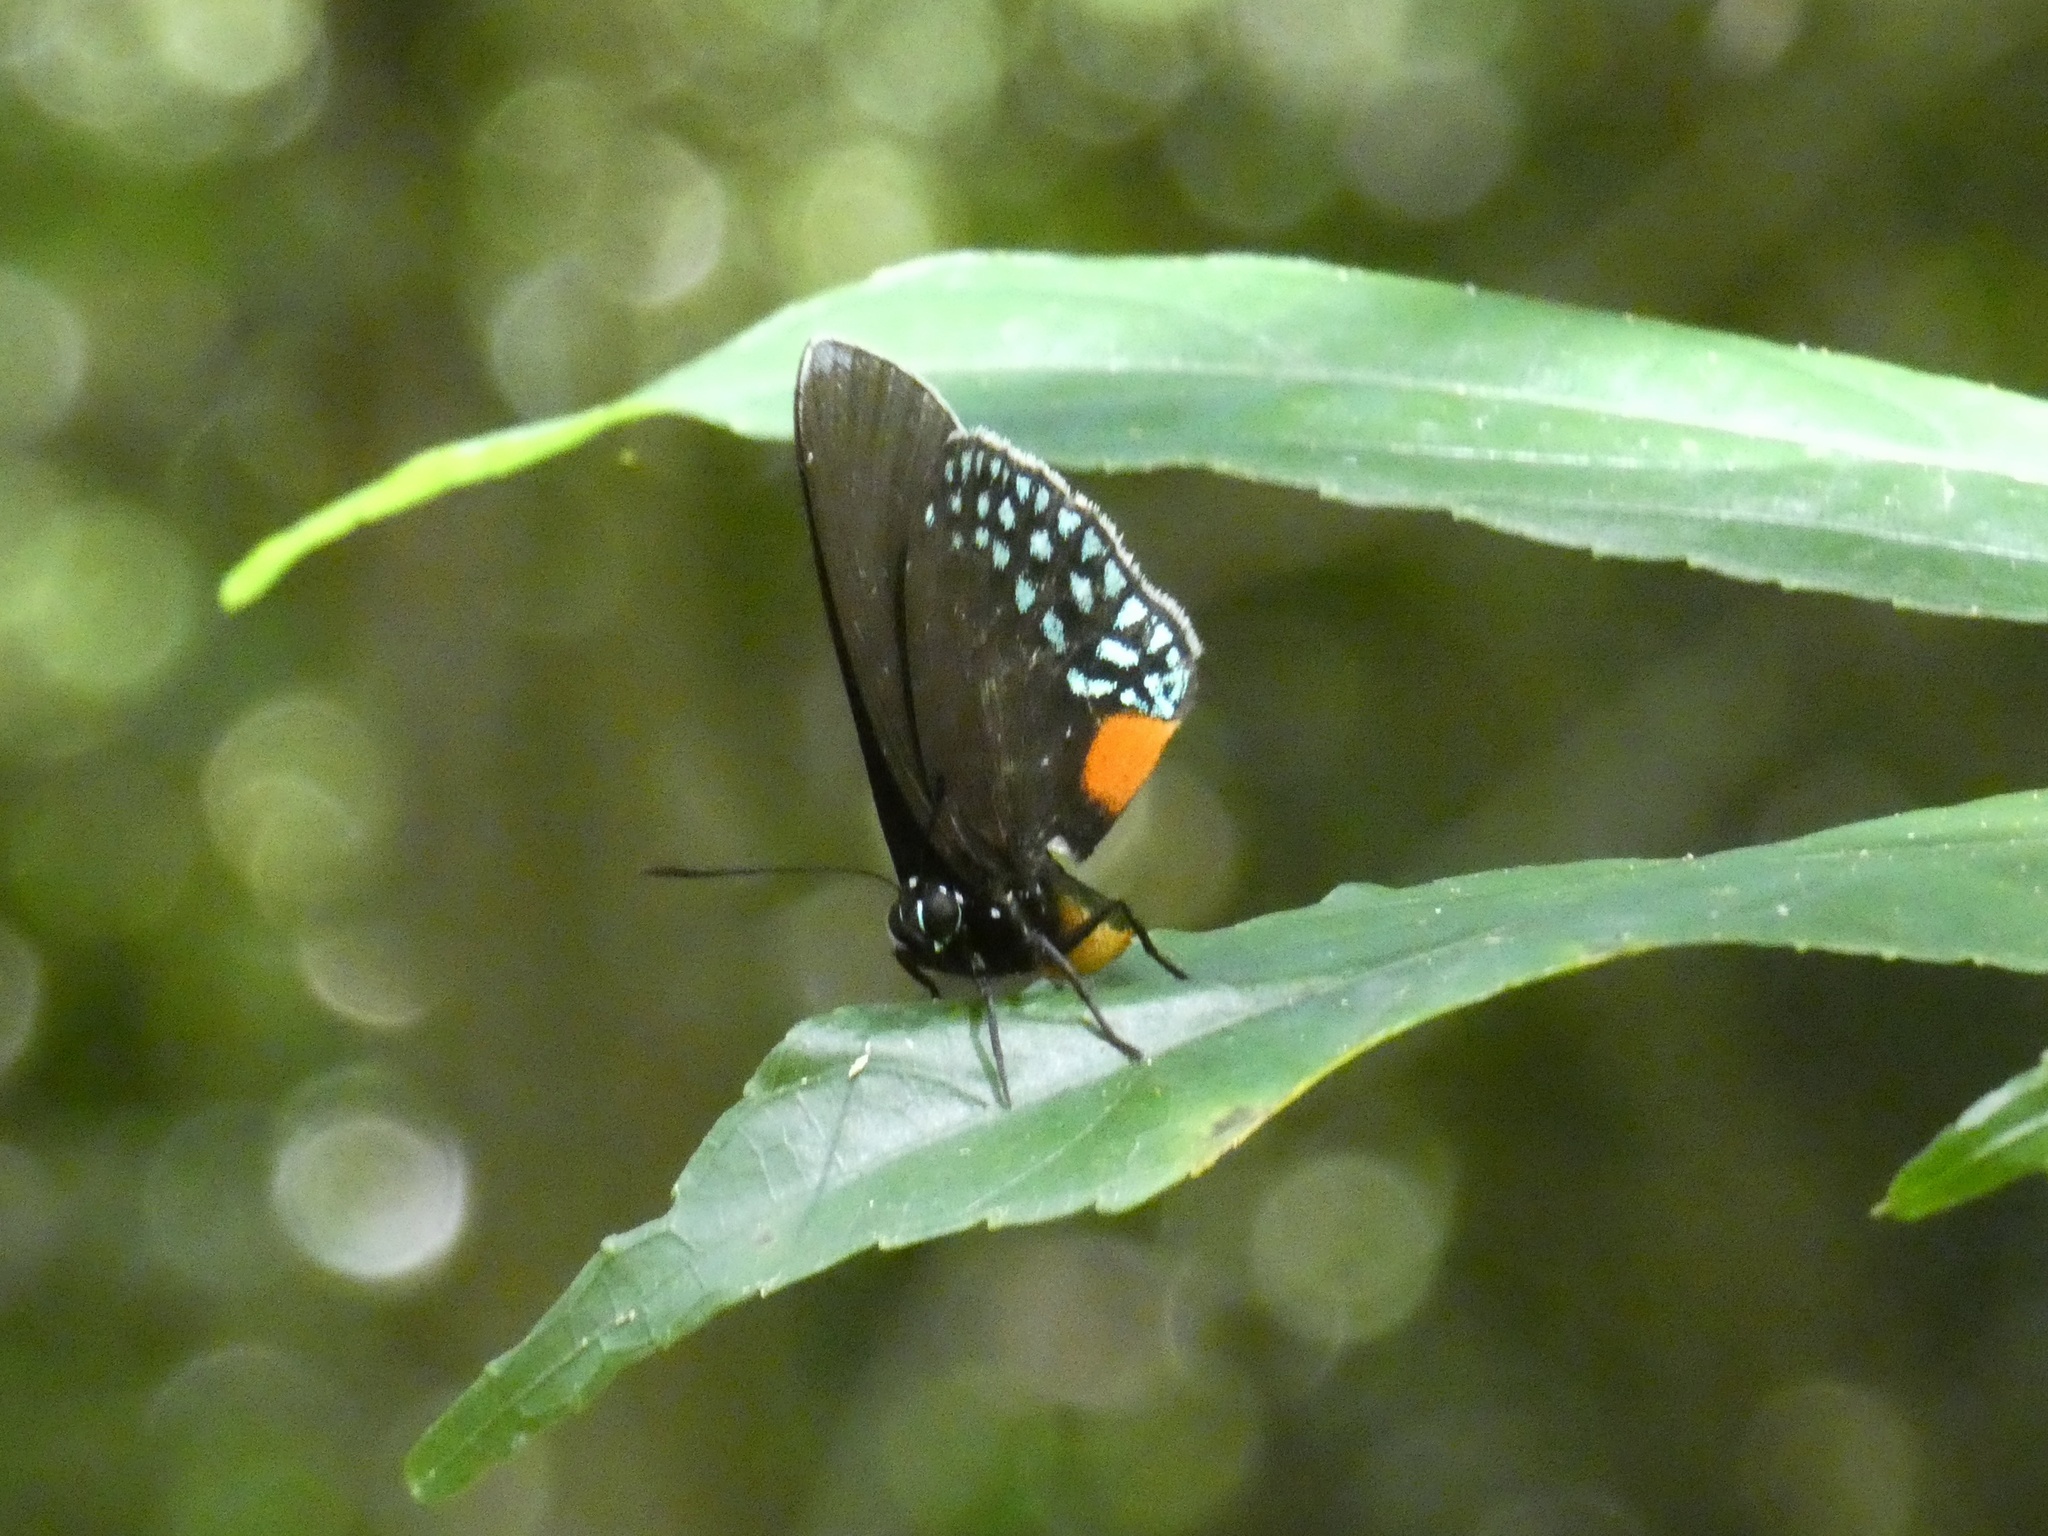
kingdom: Animalia
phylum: Arthropoda
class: Insecta
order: Lepidoptera
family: Lycaenidae
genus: Eumaeus
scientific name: Eumaeus godartii
